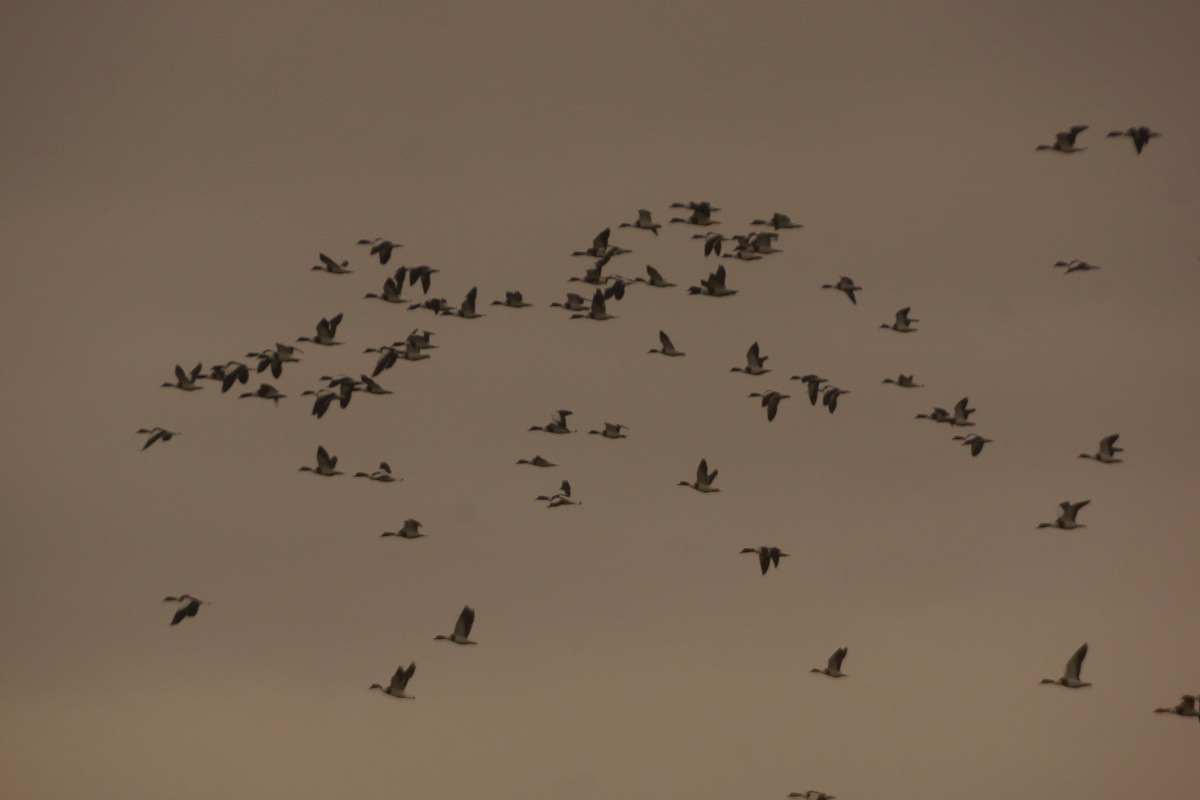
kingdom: Animalia
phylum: Chordata
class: Aves
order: Anseriformes
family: Anatidae
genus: Tadorna
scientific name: Tadorna tadorna
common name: Common shelduck
